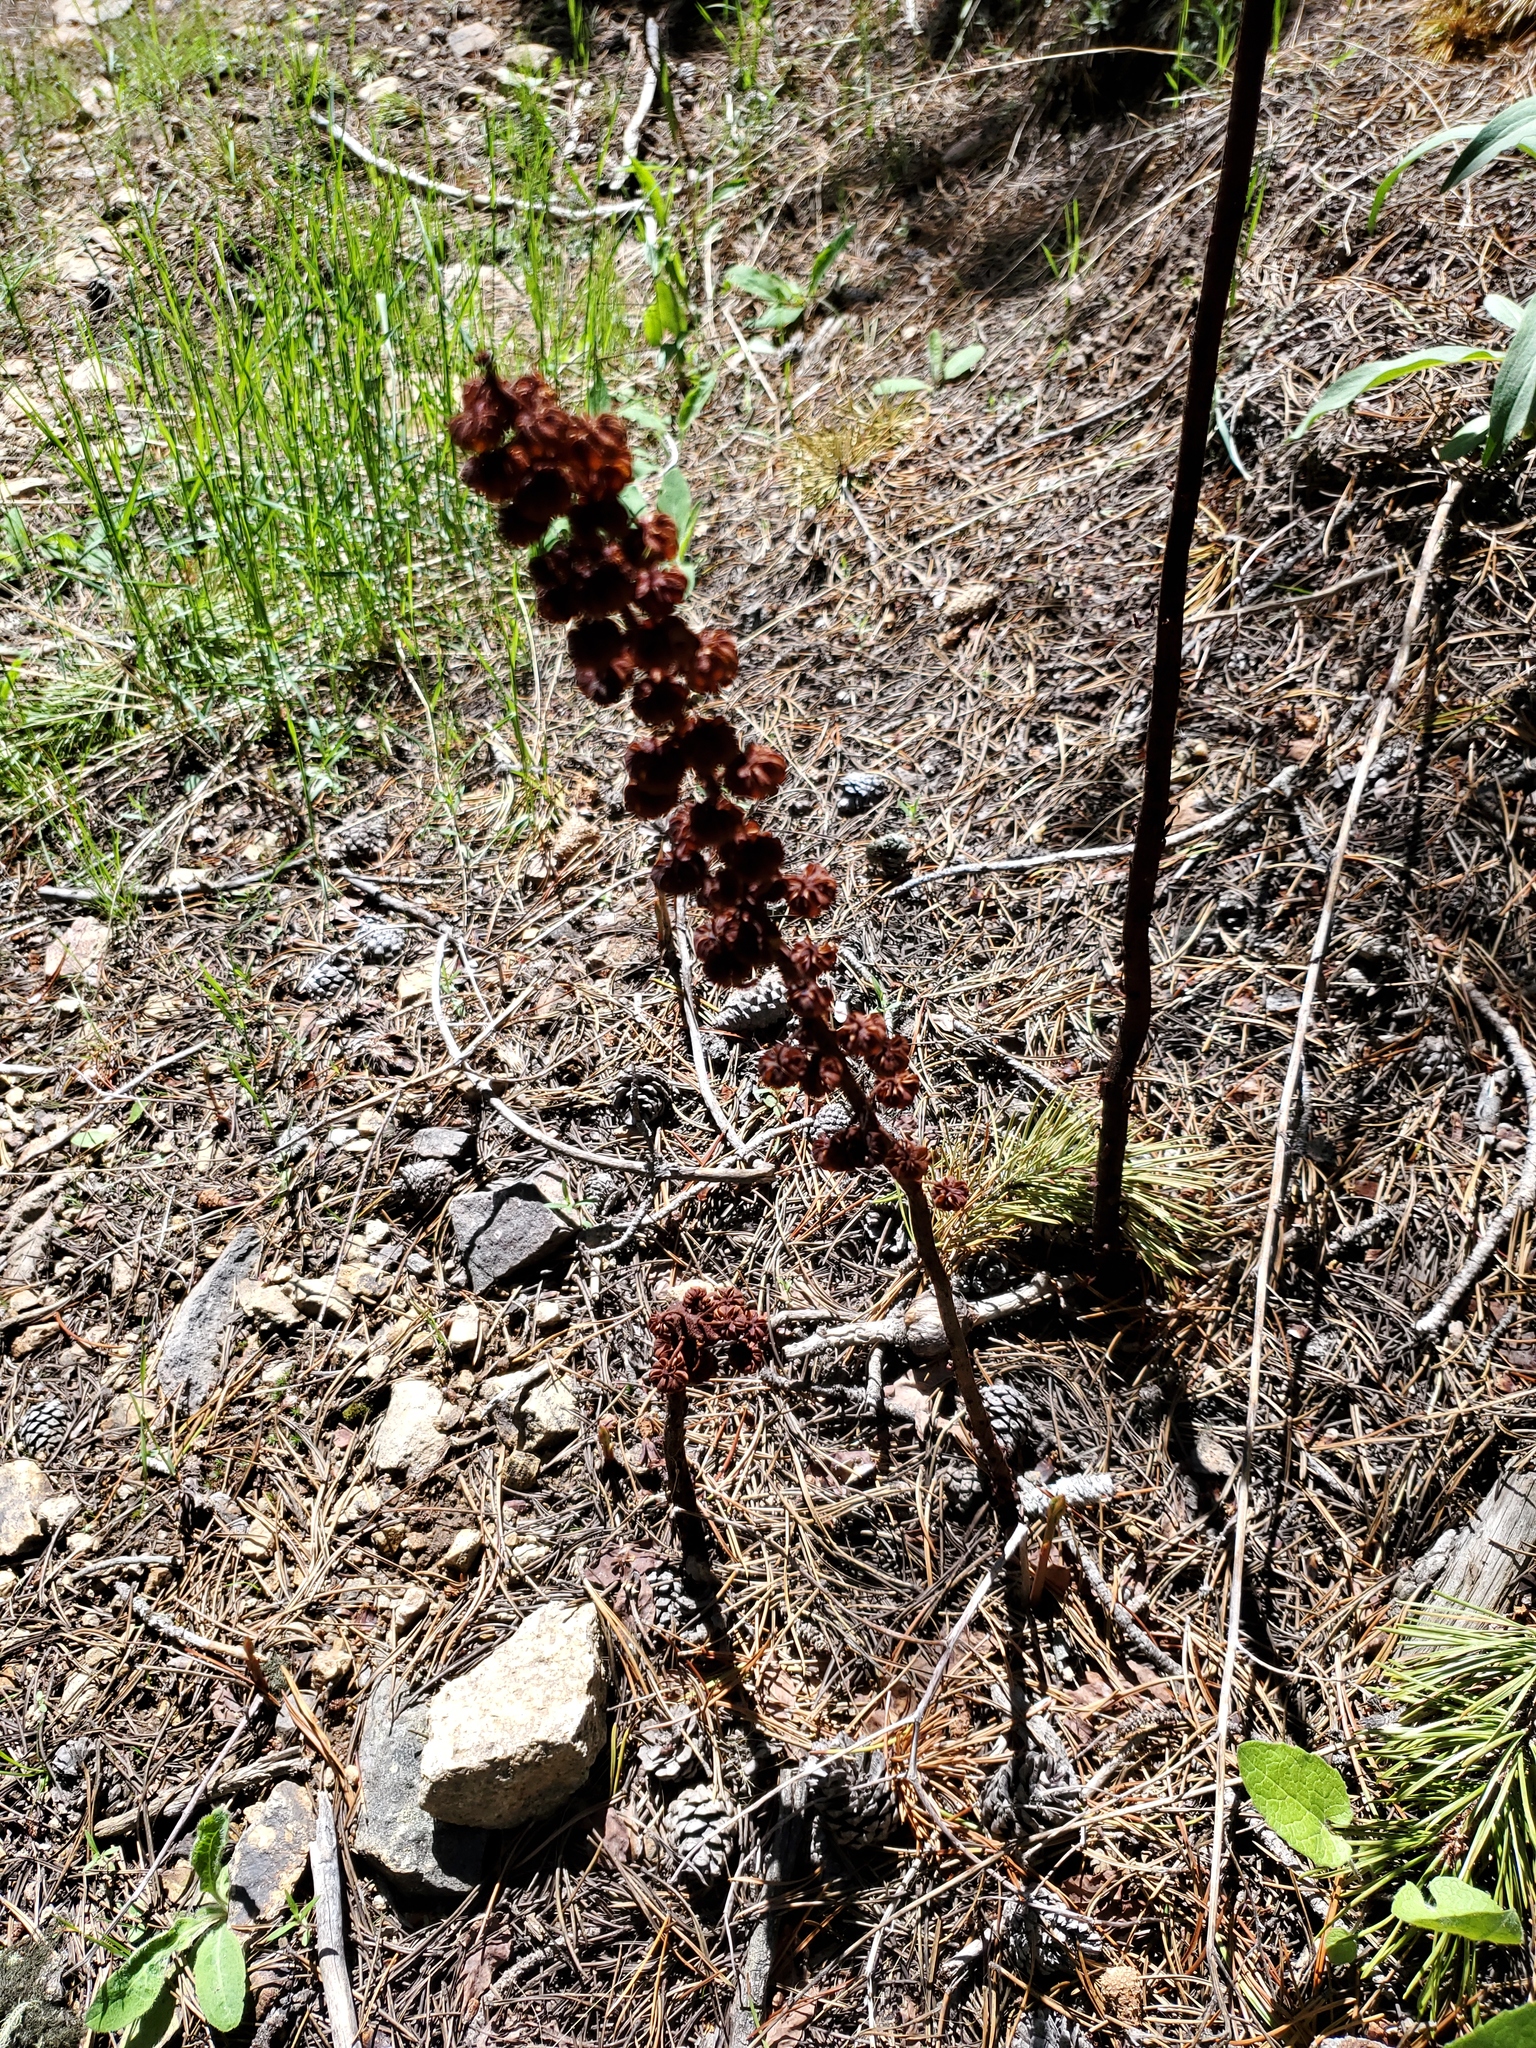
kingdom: Plantae
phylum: Tracheophyta
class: Magnoliopsida
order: Ericales
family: Ericaceae
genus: Pterospora
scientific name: Pterospora andromedea
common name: Giant bird's-nest
